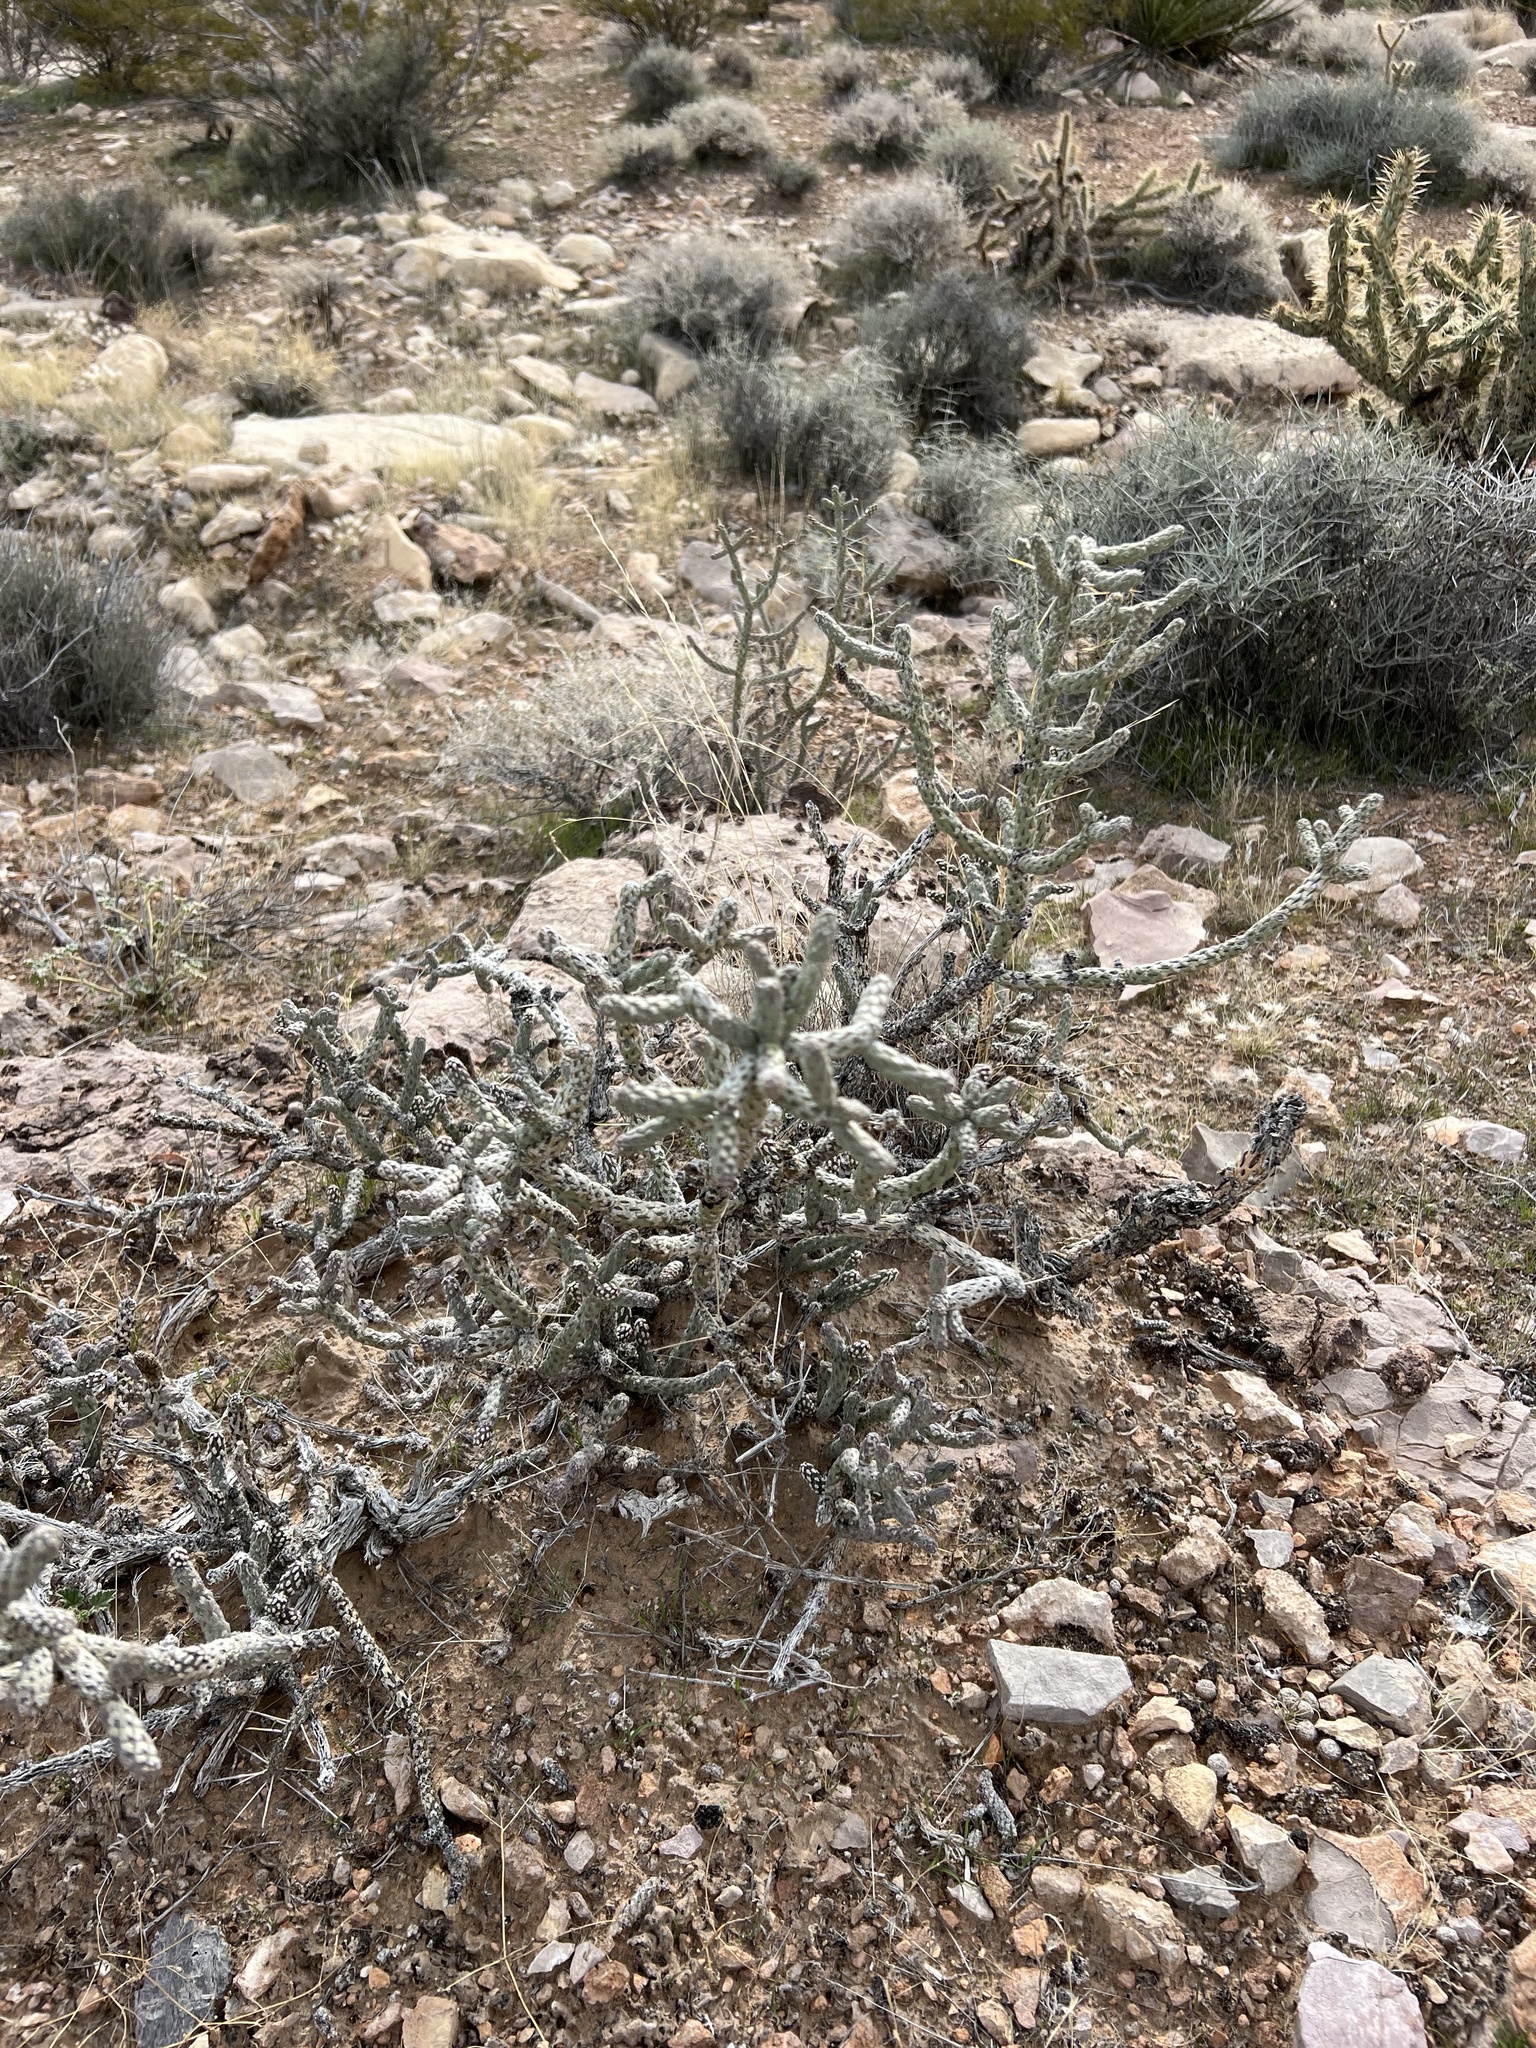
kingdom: Plantae
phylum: Tracheophyta
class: Magnoliopsida
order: Caryophyllales
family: Cactaceae
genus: Cylindropuntia
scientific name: Cylindropuntia ramosissima
